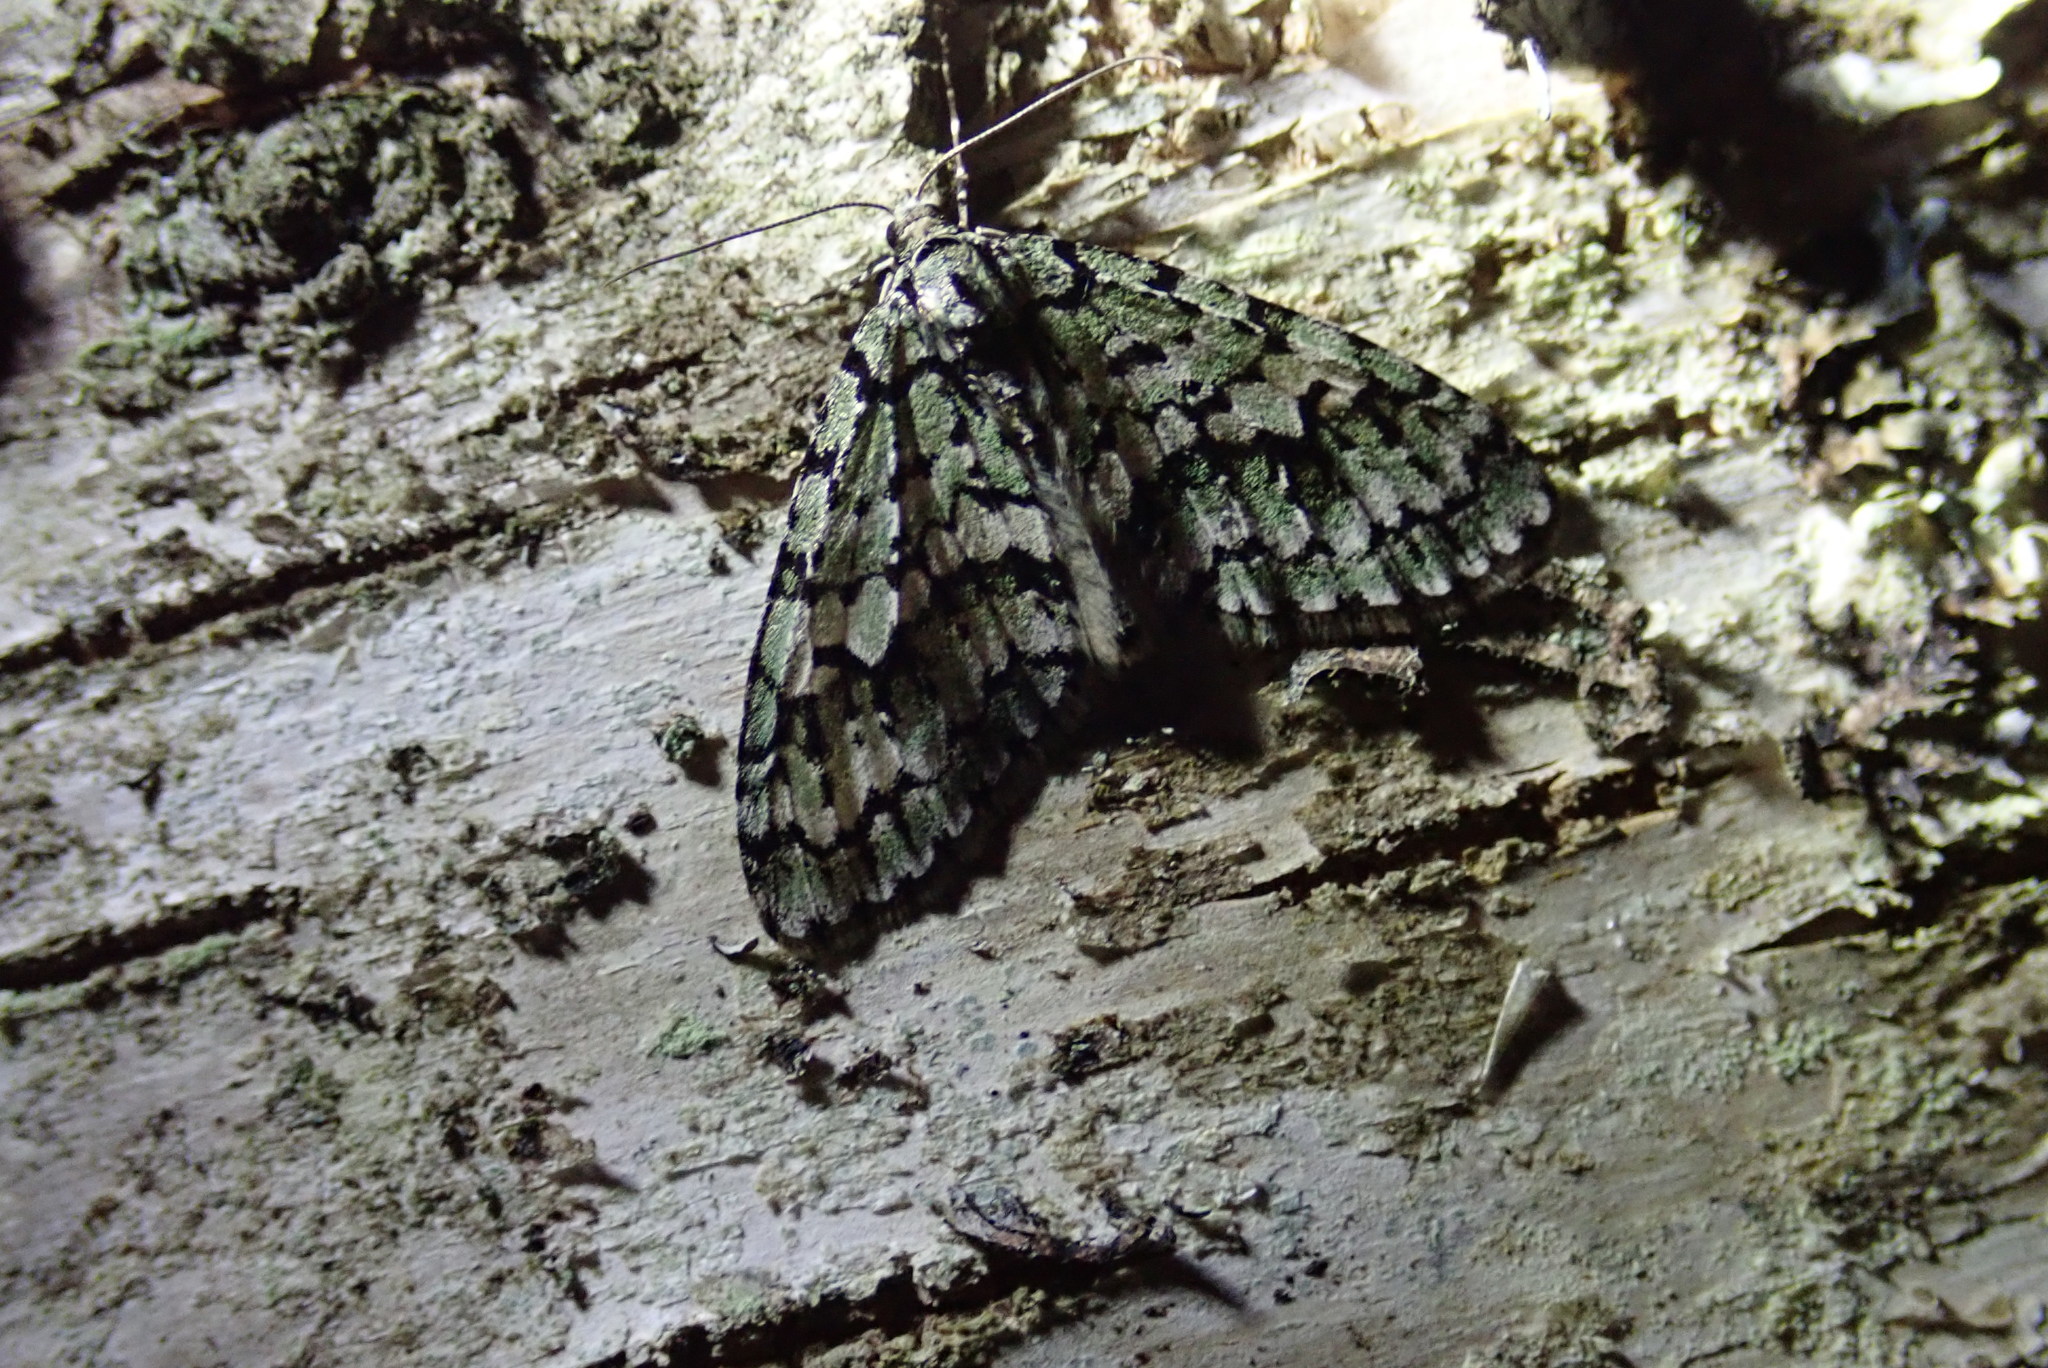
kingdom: Animalia
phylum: Arthropoda
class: Insecta
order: Lepidoptera
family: Geometridae
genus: Cladara
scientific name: Cladara atroliturata
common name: Scribbler
